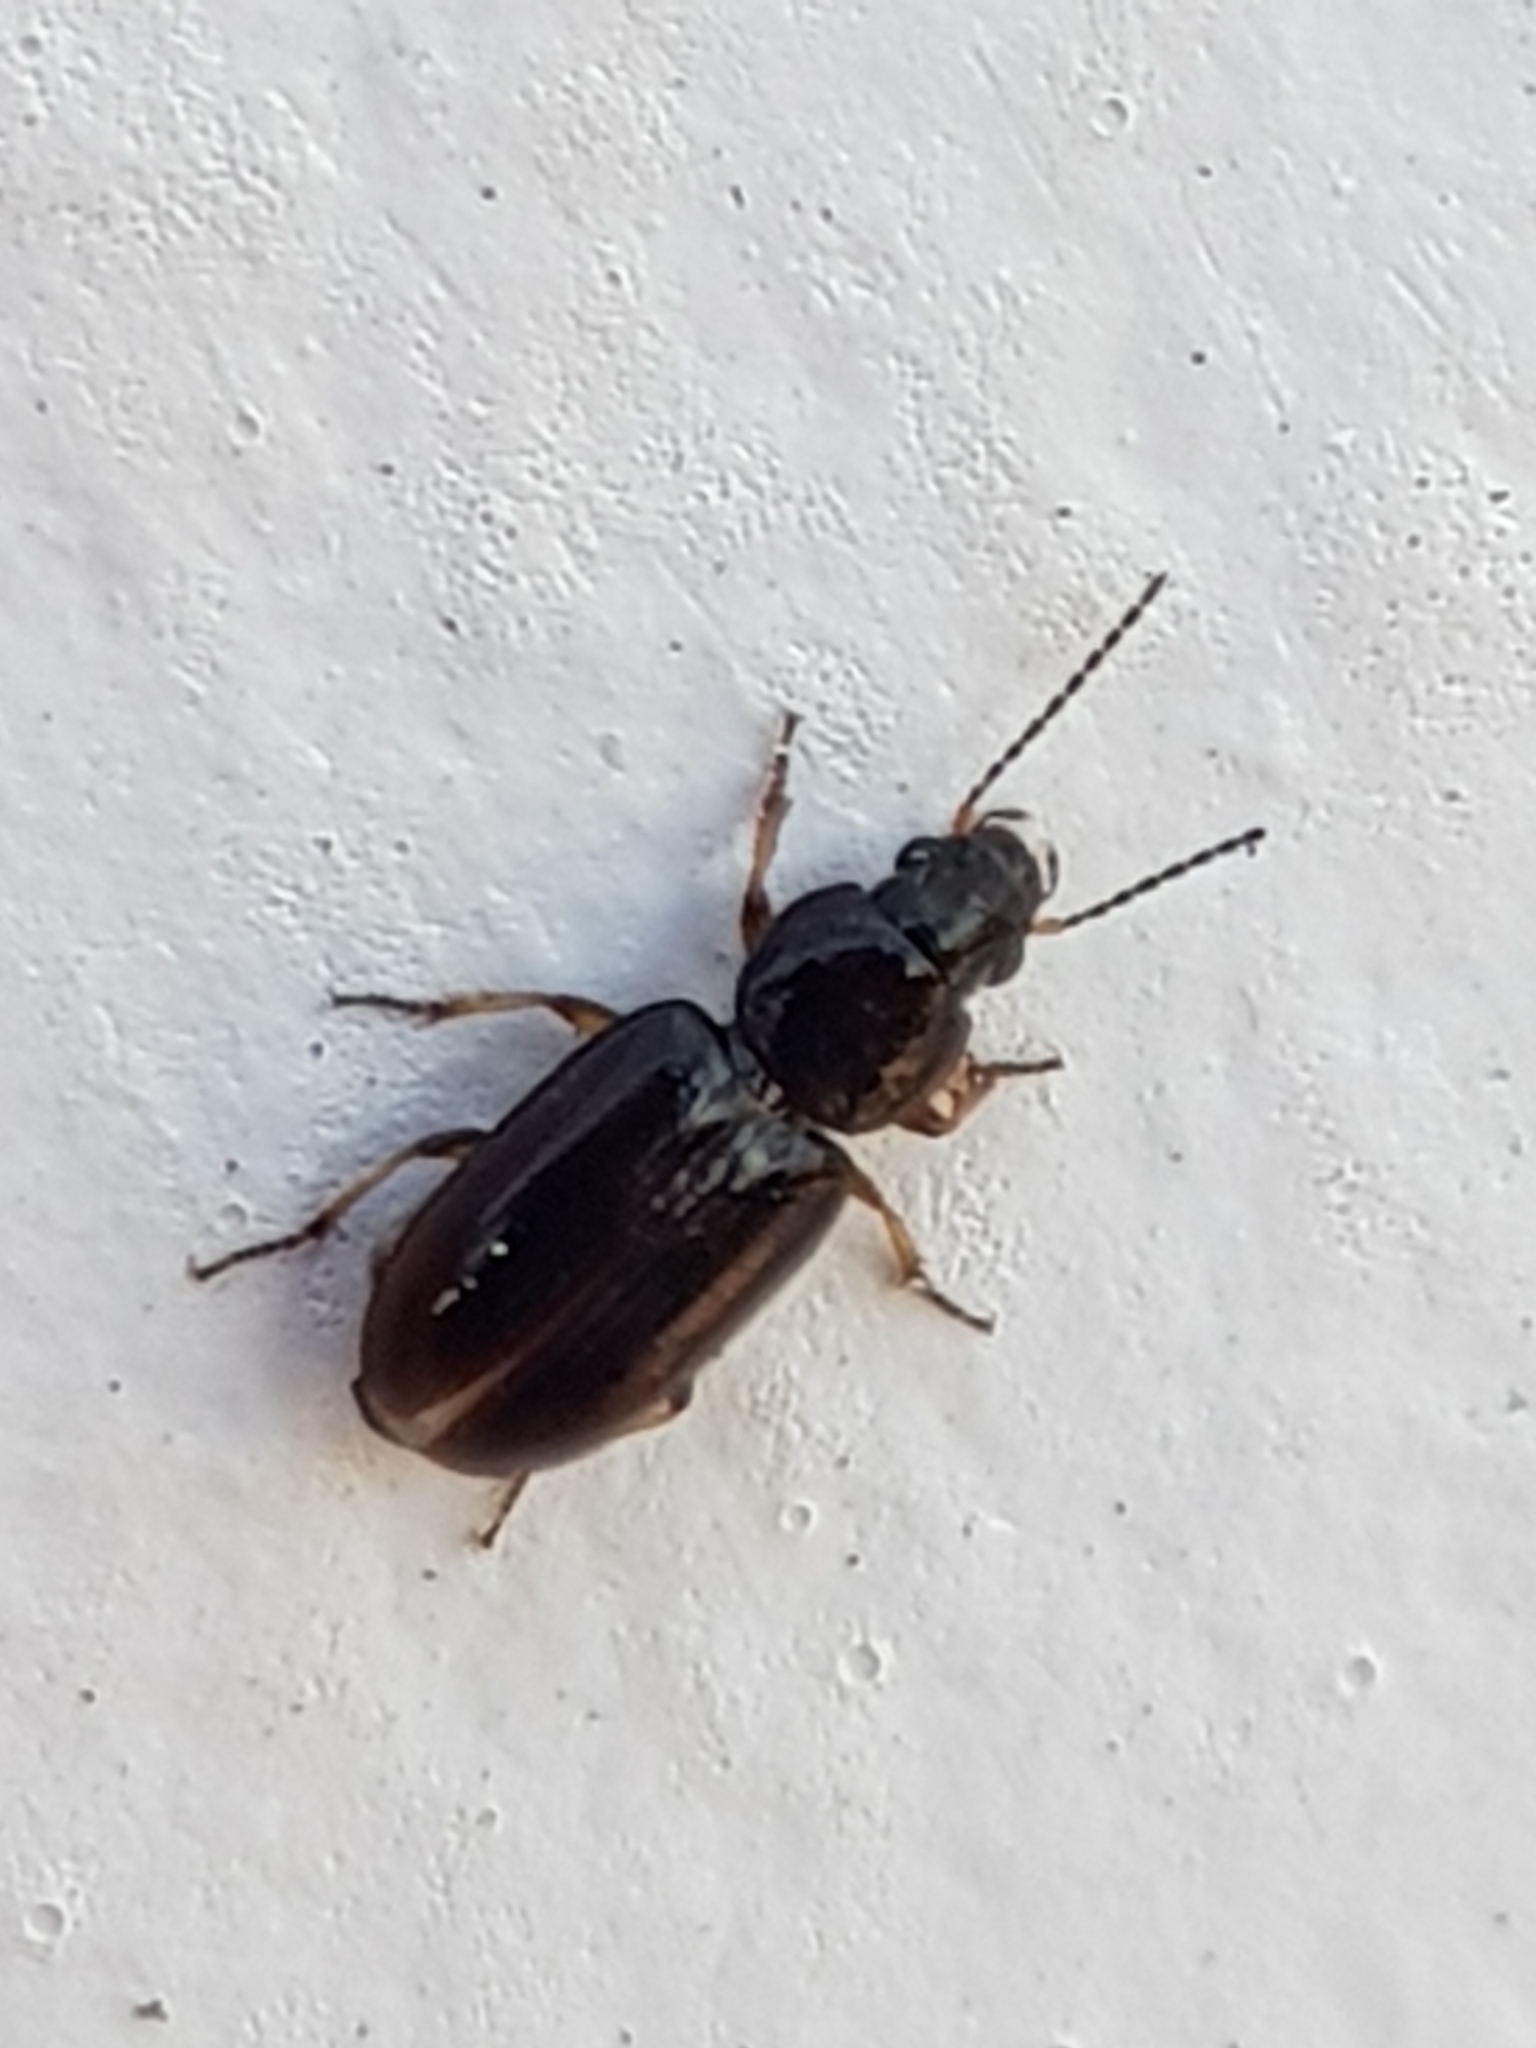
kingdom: Animalia
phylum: Arthropoda
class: Insecta
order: Coleoptera
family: Carabidae
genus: Haplanister
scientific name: Haplanister crypticus
